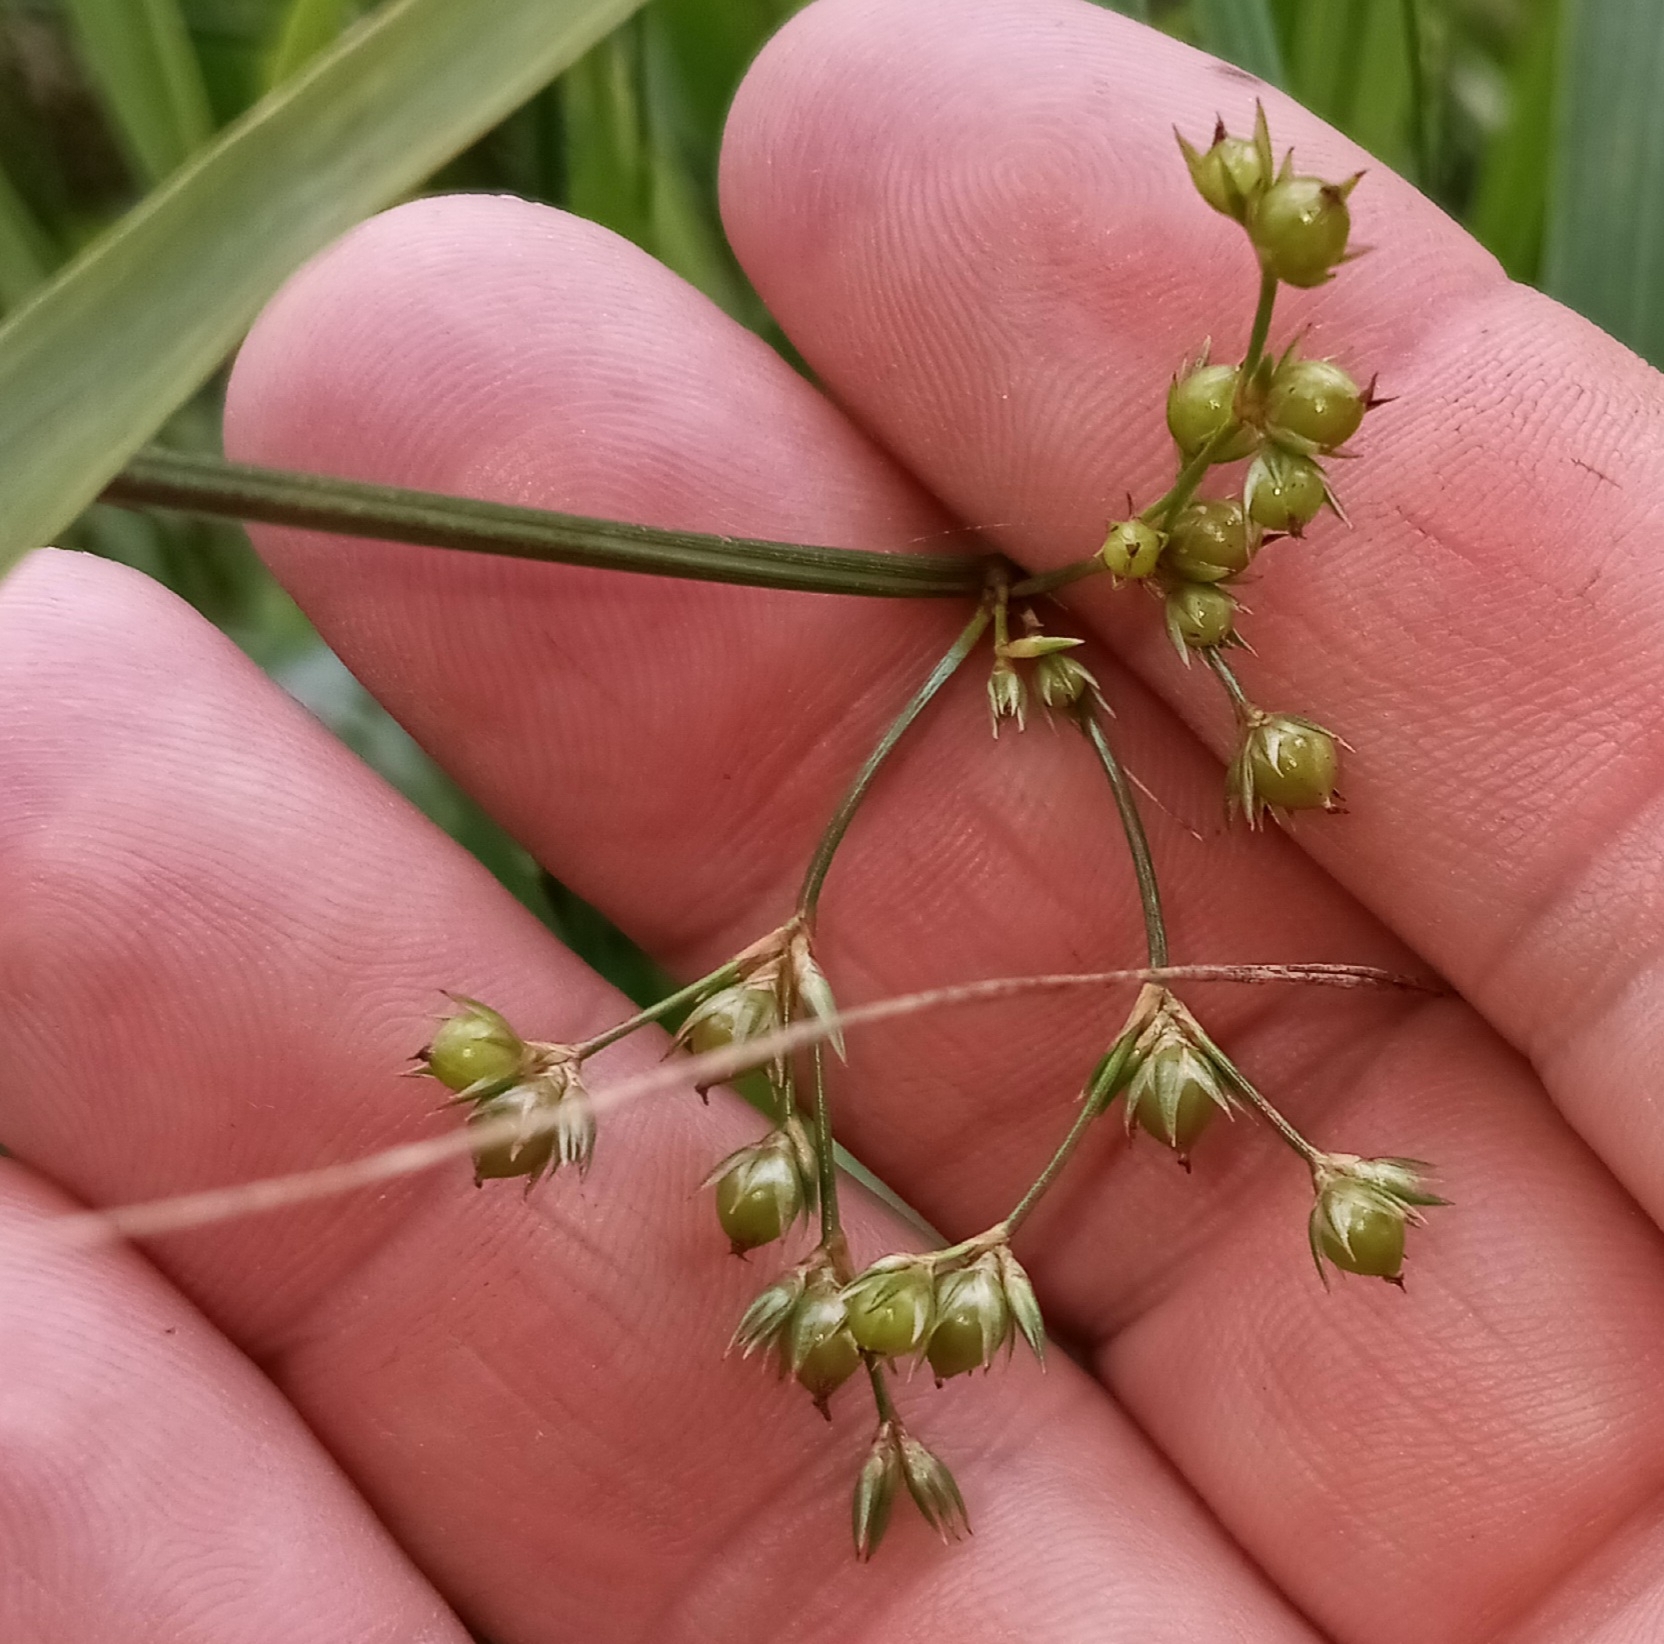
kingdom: Plantae
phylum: Tracheophyta
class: Liliopsida
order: Poales
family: Juncaceae
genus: Juncus
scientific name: Juncus coriaceus
